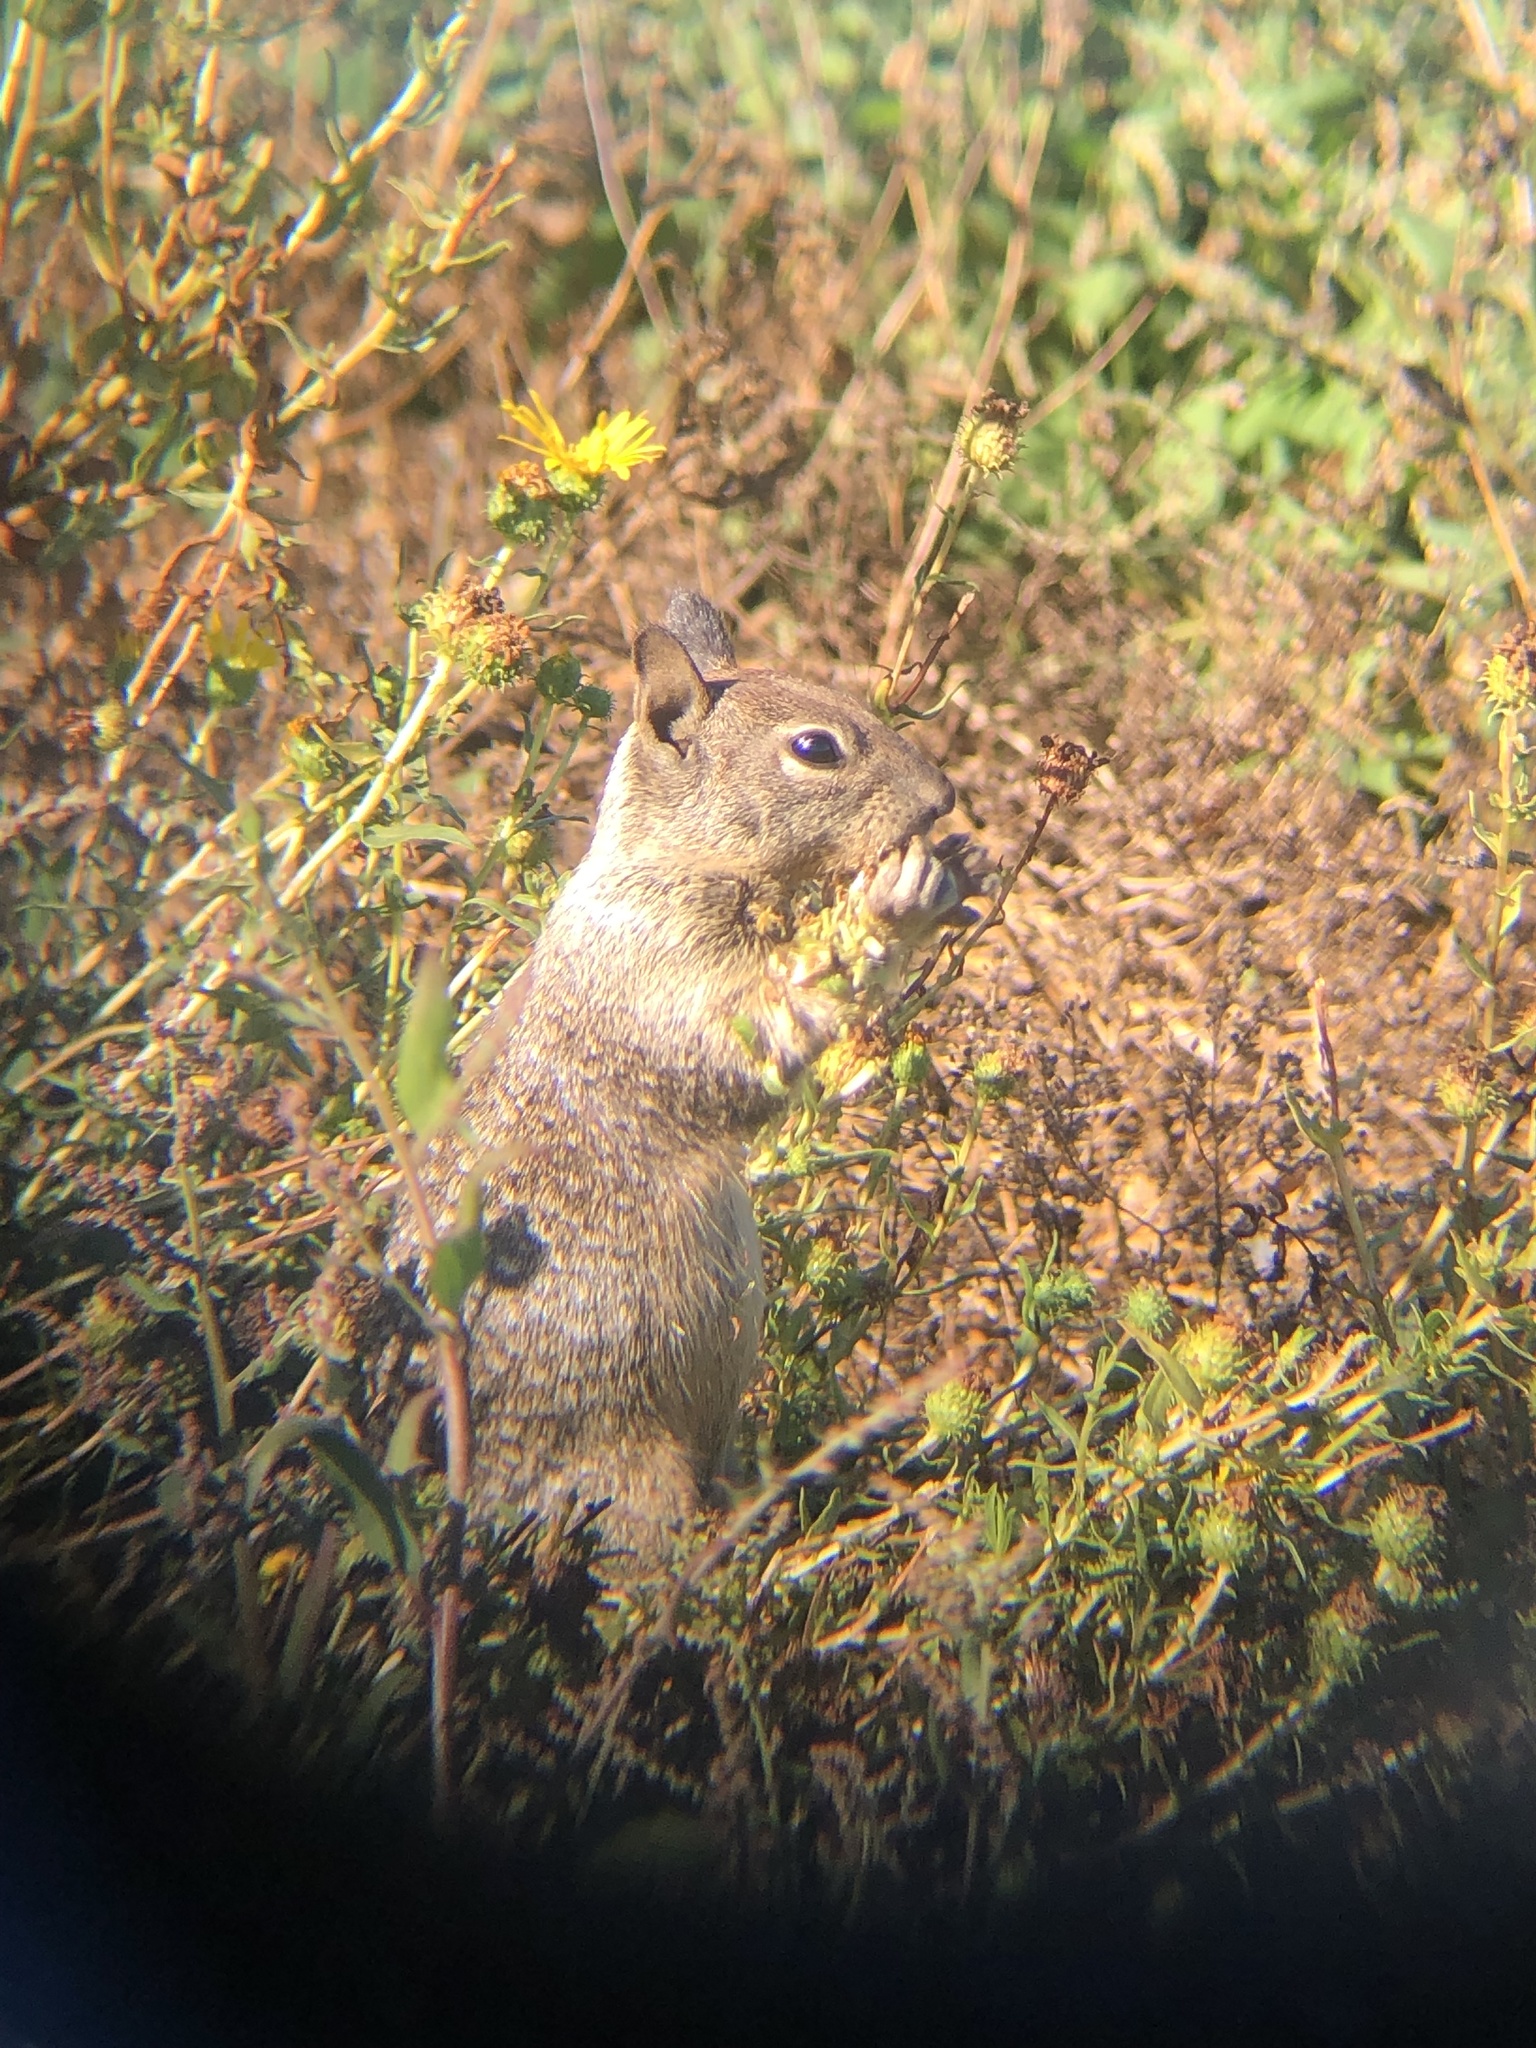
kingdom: Animalia
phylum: Chordata
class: Mammalia
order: Rodentia
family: Sciuridae
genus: Otospermophilus
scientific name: Otospermophilus beecheyi
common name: California ground squirrel
